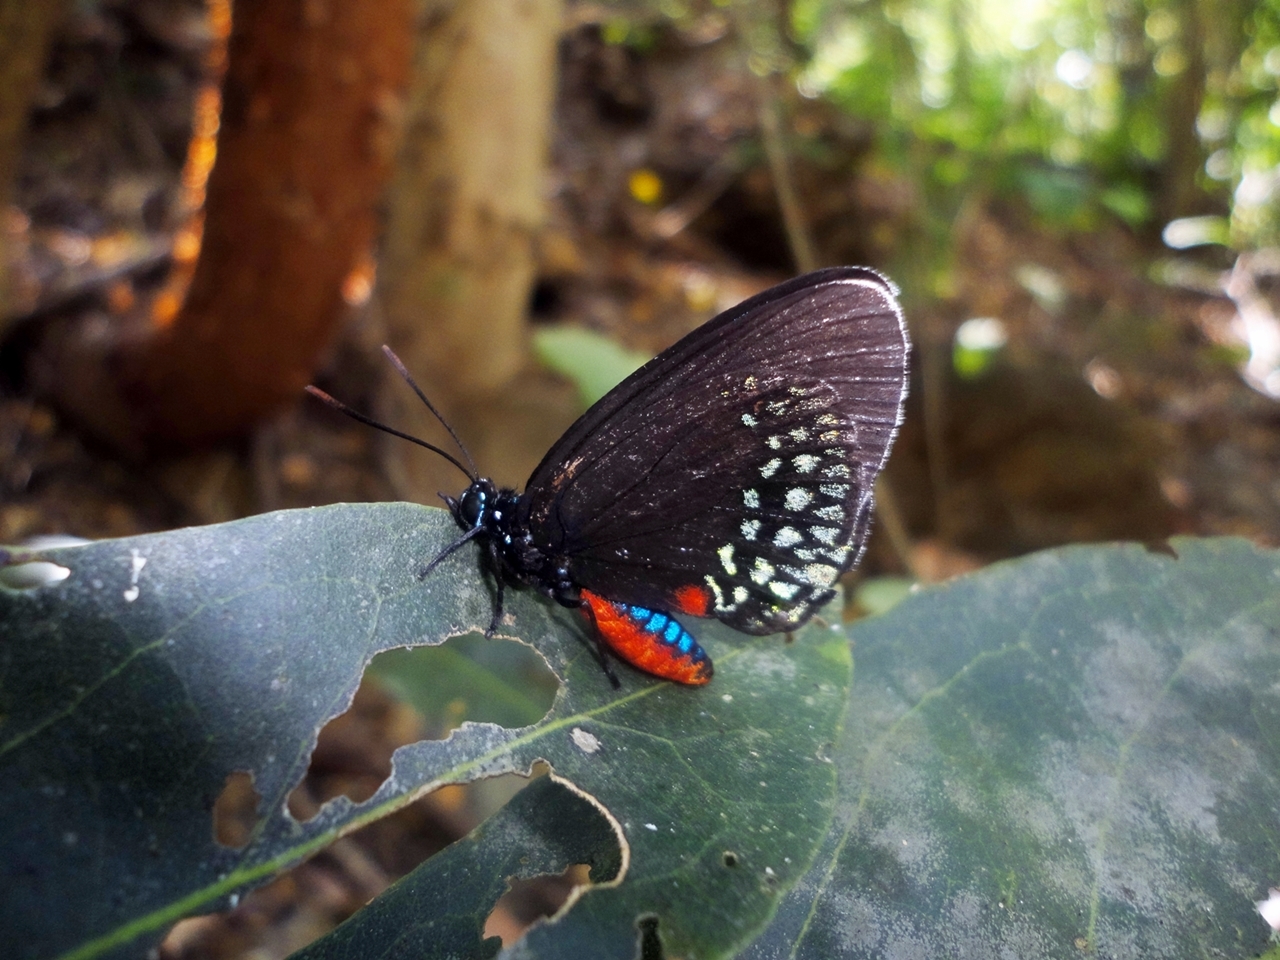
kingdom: Animalia
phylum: Arthropoda
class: Insecta
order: Lepidoptera
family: Lycaenidae
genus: Eumaeus
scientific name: Eumaeus toxea
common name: Mexican cycadian
